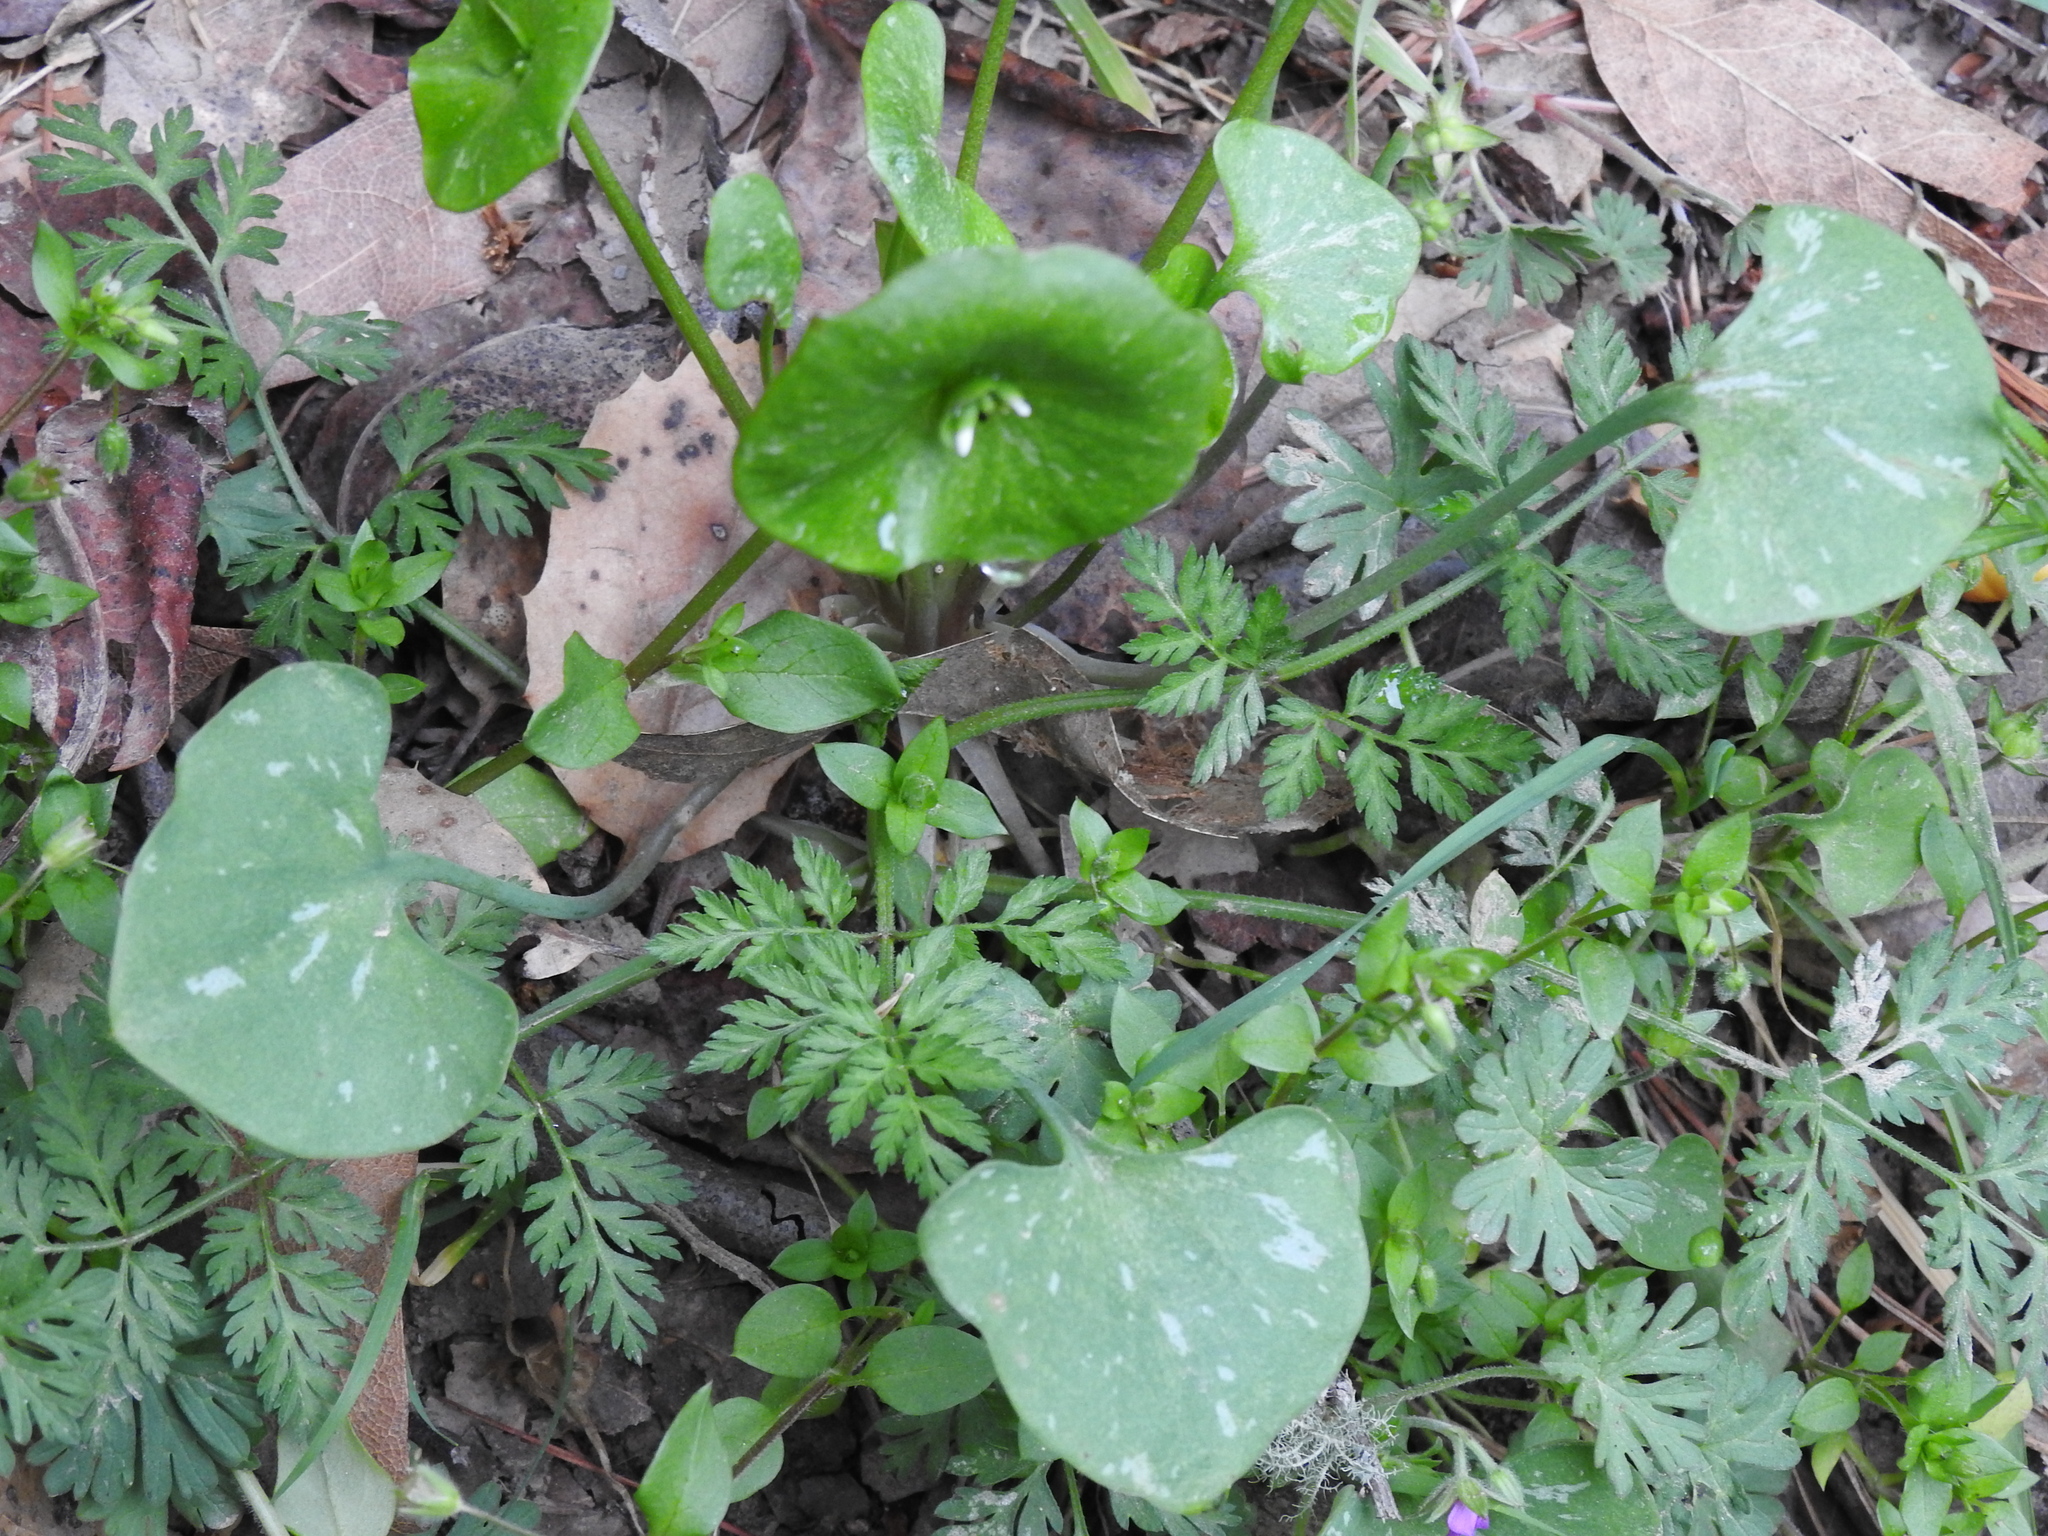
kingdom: Plantae
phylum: Tracheophyta
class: Magnoliopsida
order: Caryophyllales
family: Montiaceae
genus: Claytonia
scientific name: Claytonia perfoliata
